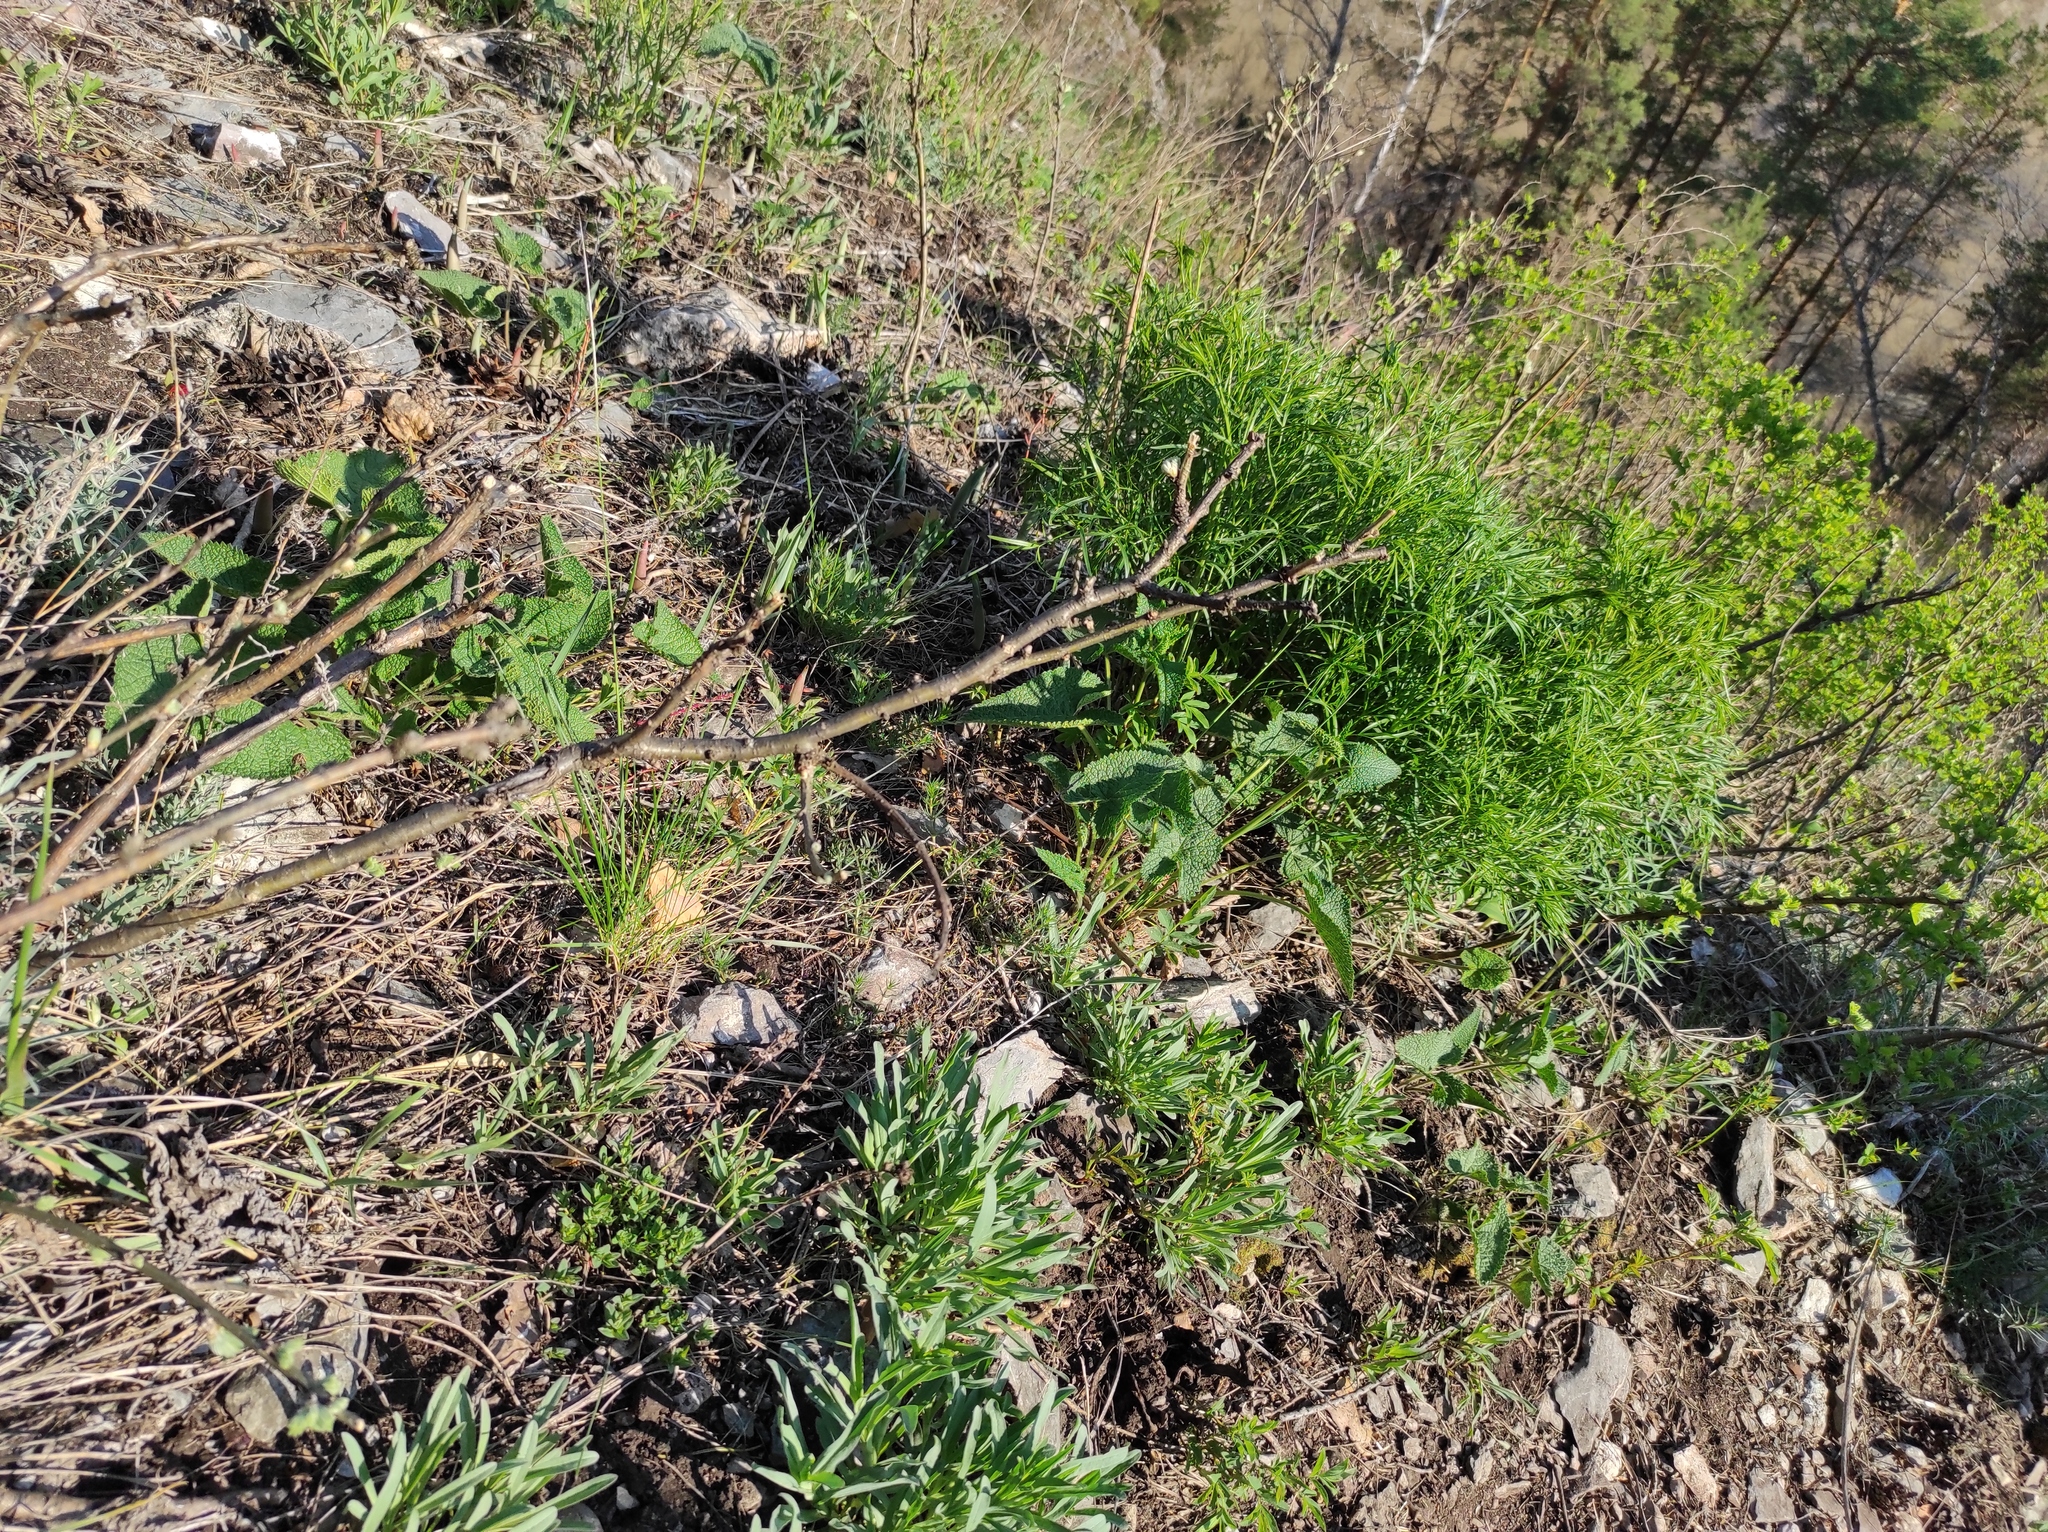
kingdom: Plantae
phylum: Tracheophyta
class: Magnoliopsida
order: Lamiales
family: Lamiaceae
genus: Phlomoides
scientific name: Phlomoides tuberosa
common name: Tuberous jerusalem sage
